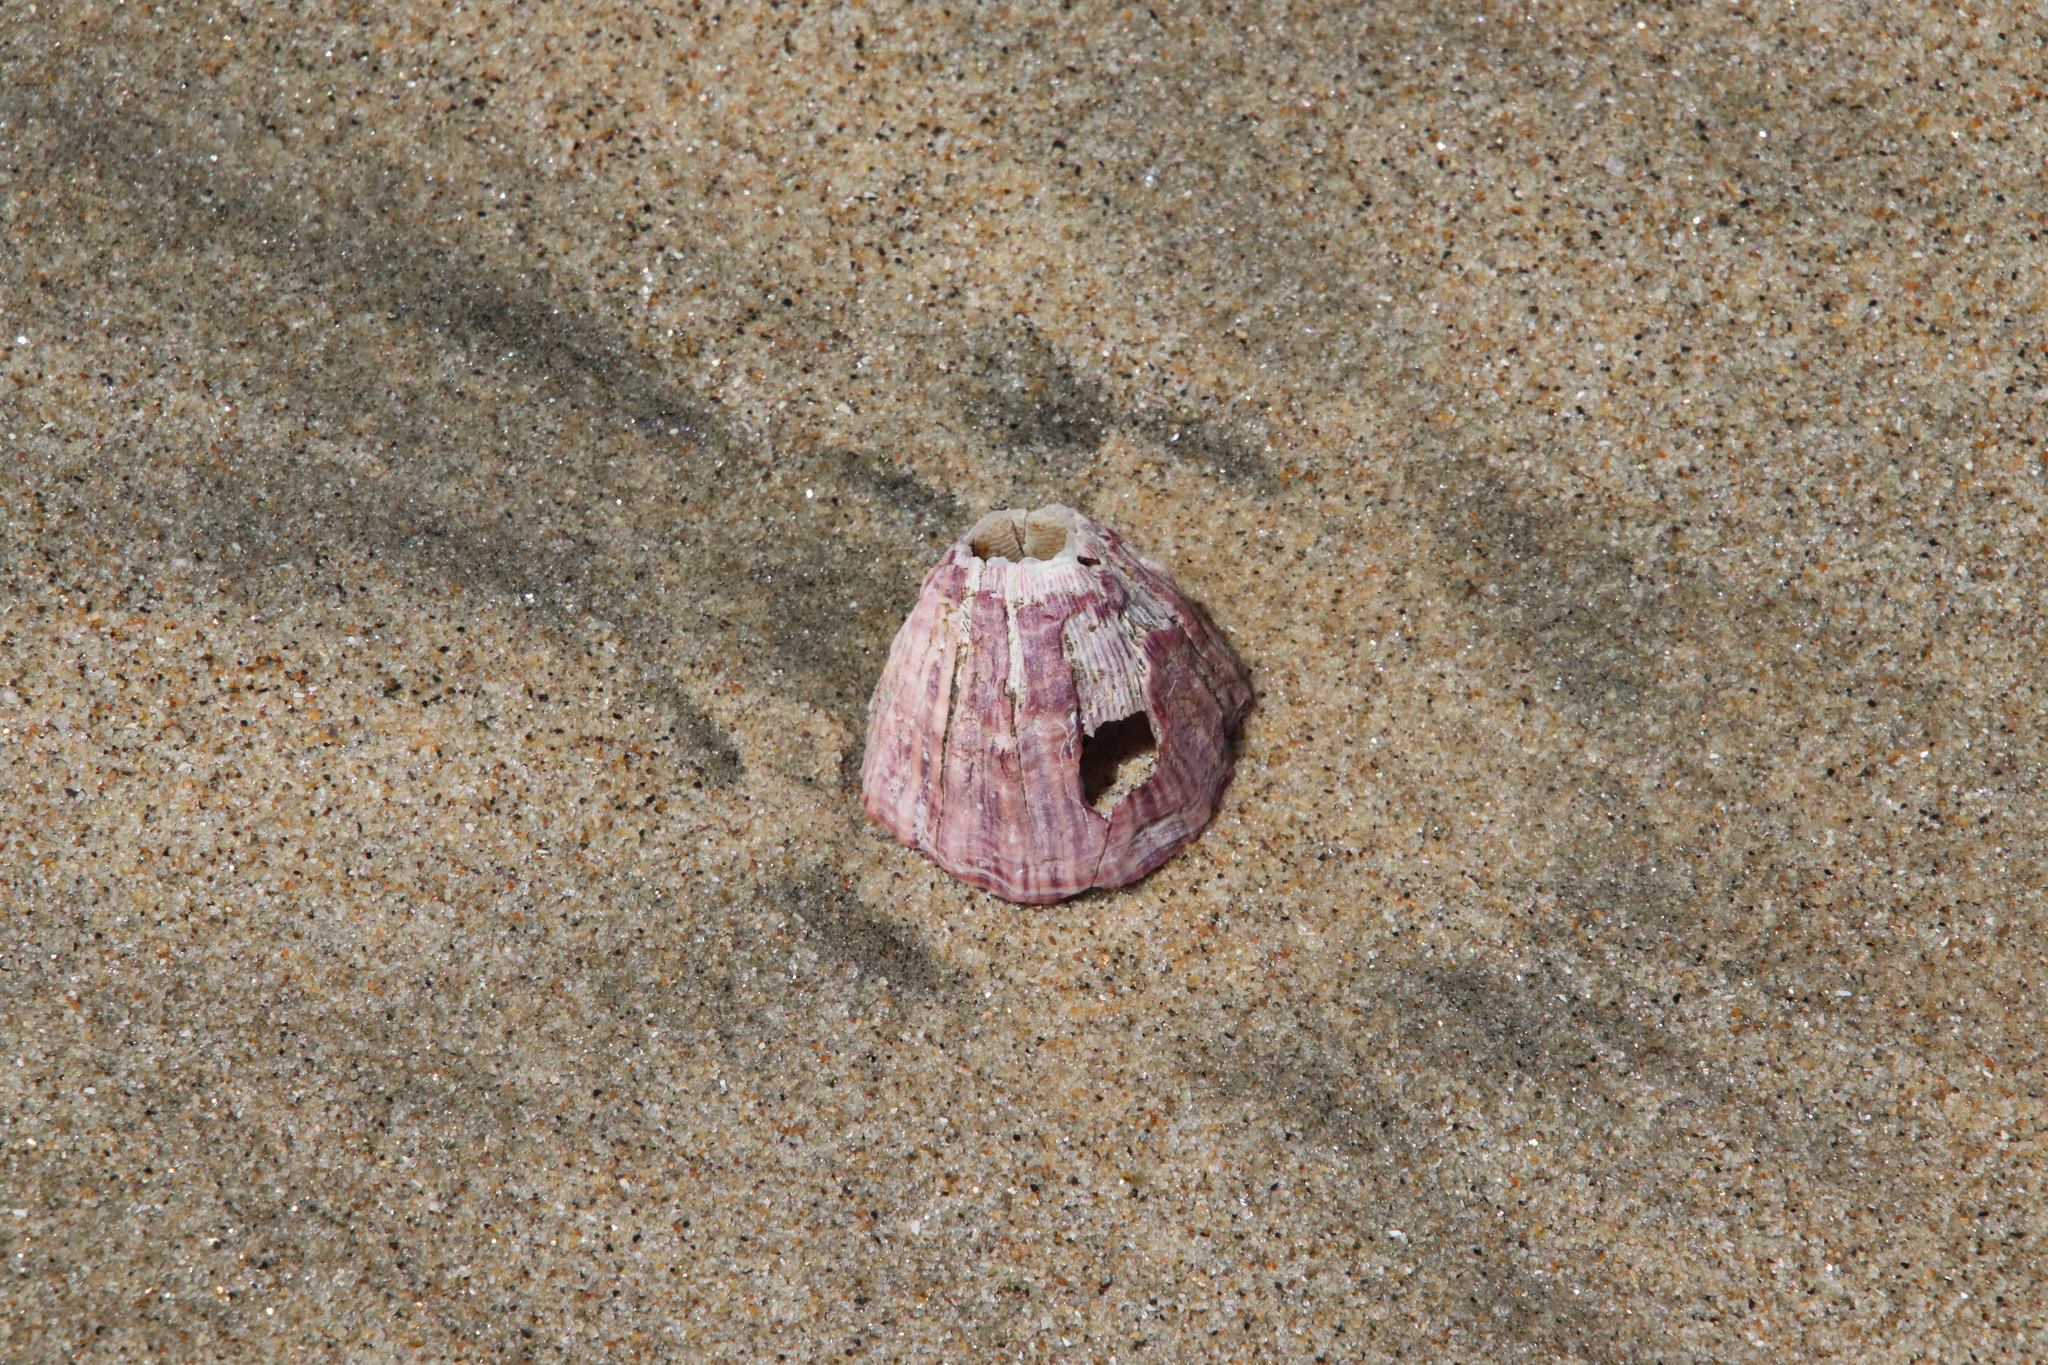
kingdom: Animalia
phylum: Arthropoda
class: Maxillopoda
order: Sessilia
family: Balanidae
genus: Menesiniella
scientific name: Menesiniella regalis
